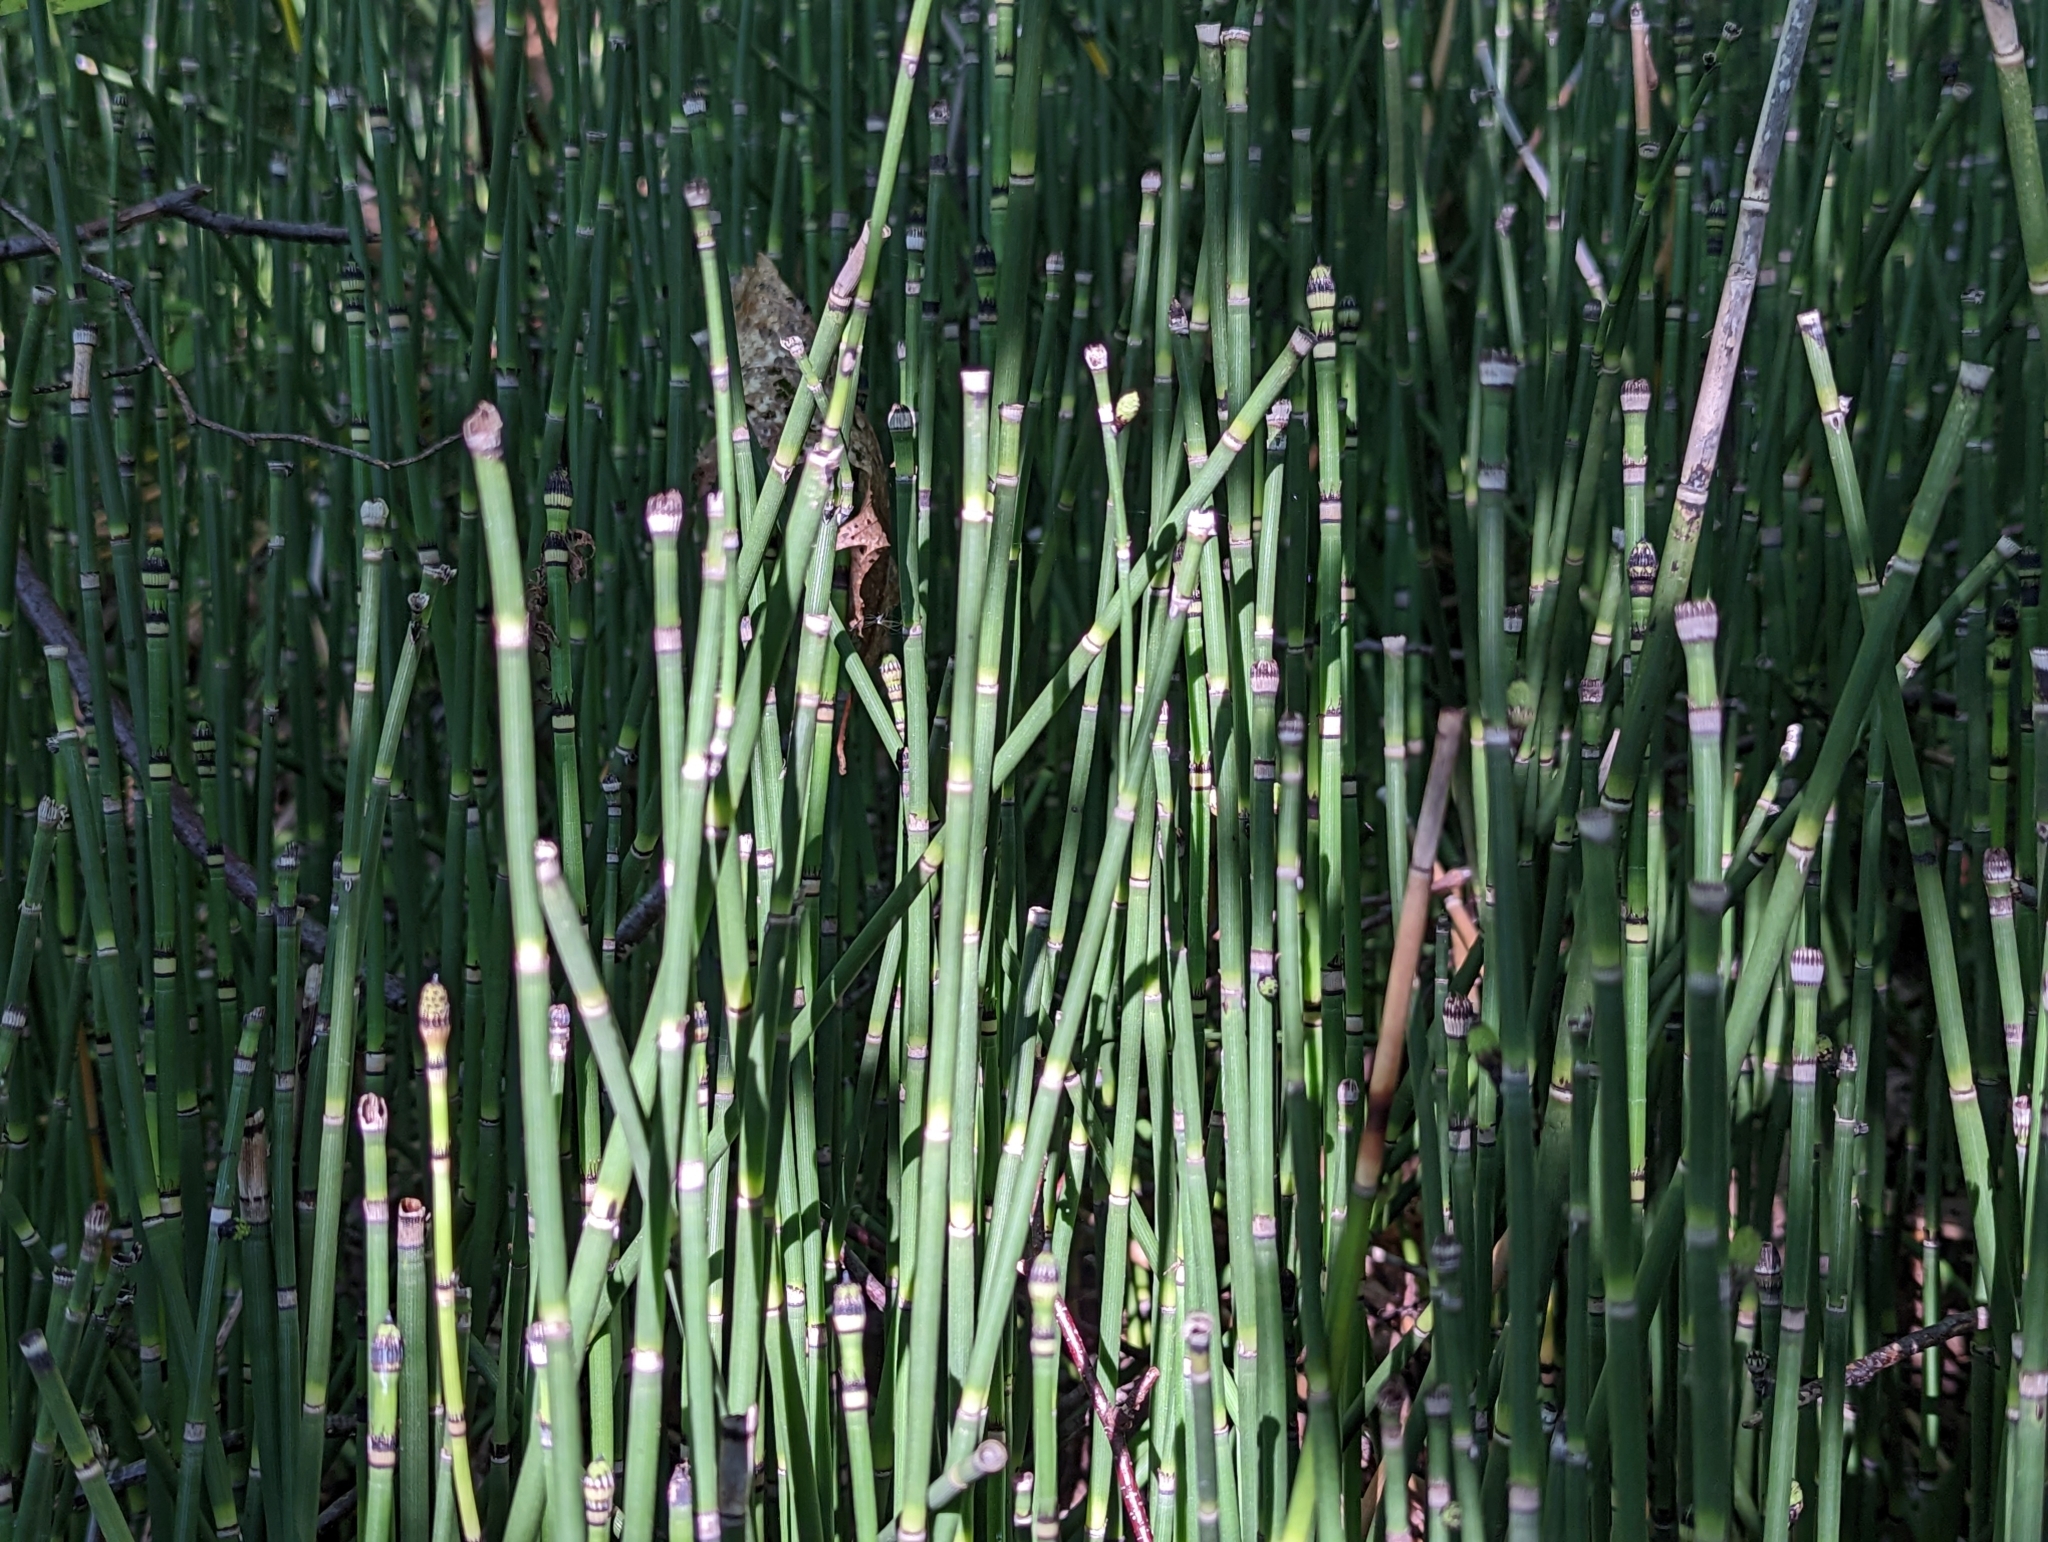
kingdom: Plantae
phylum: Tracheophyta
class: Polypodiopsida
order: Equisetales
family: Equisetaceae
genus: Equisetum
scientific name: Equisetum hyemale
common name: Rough horsetail
